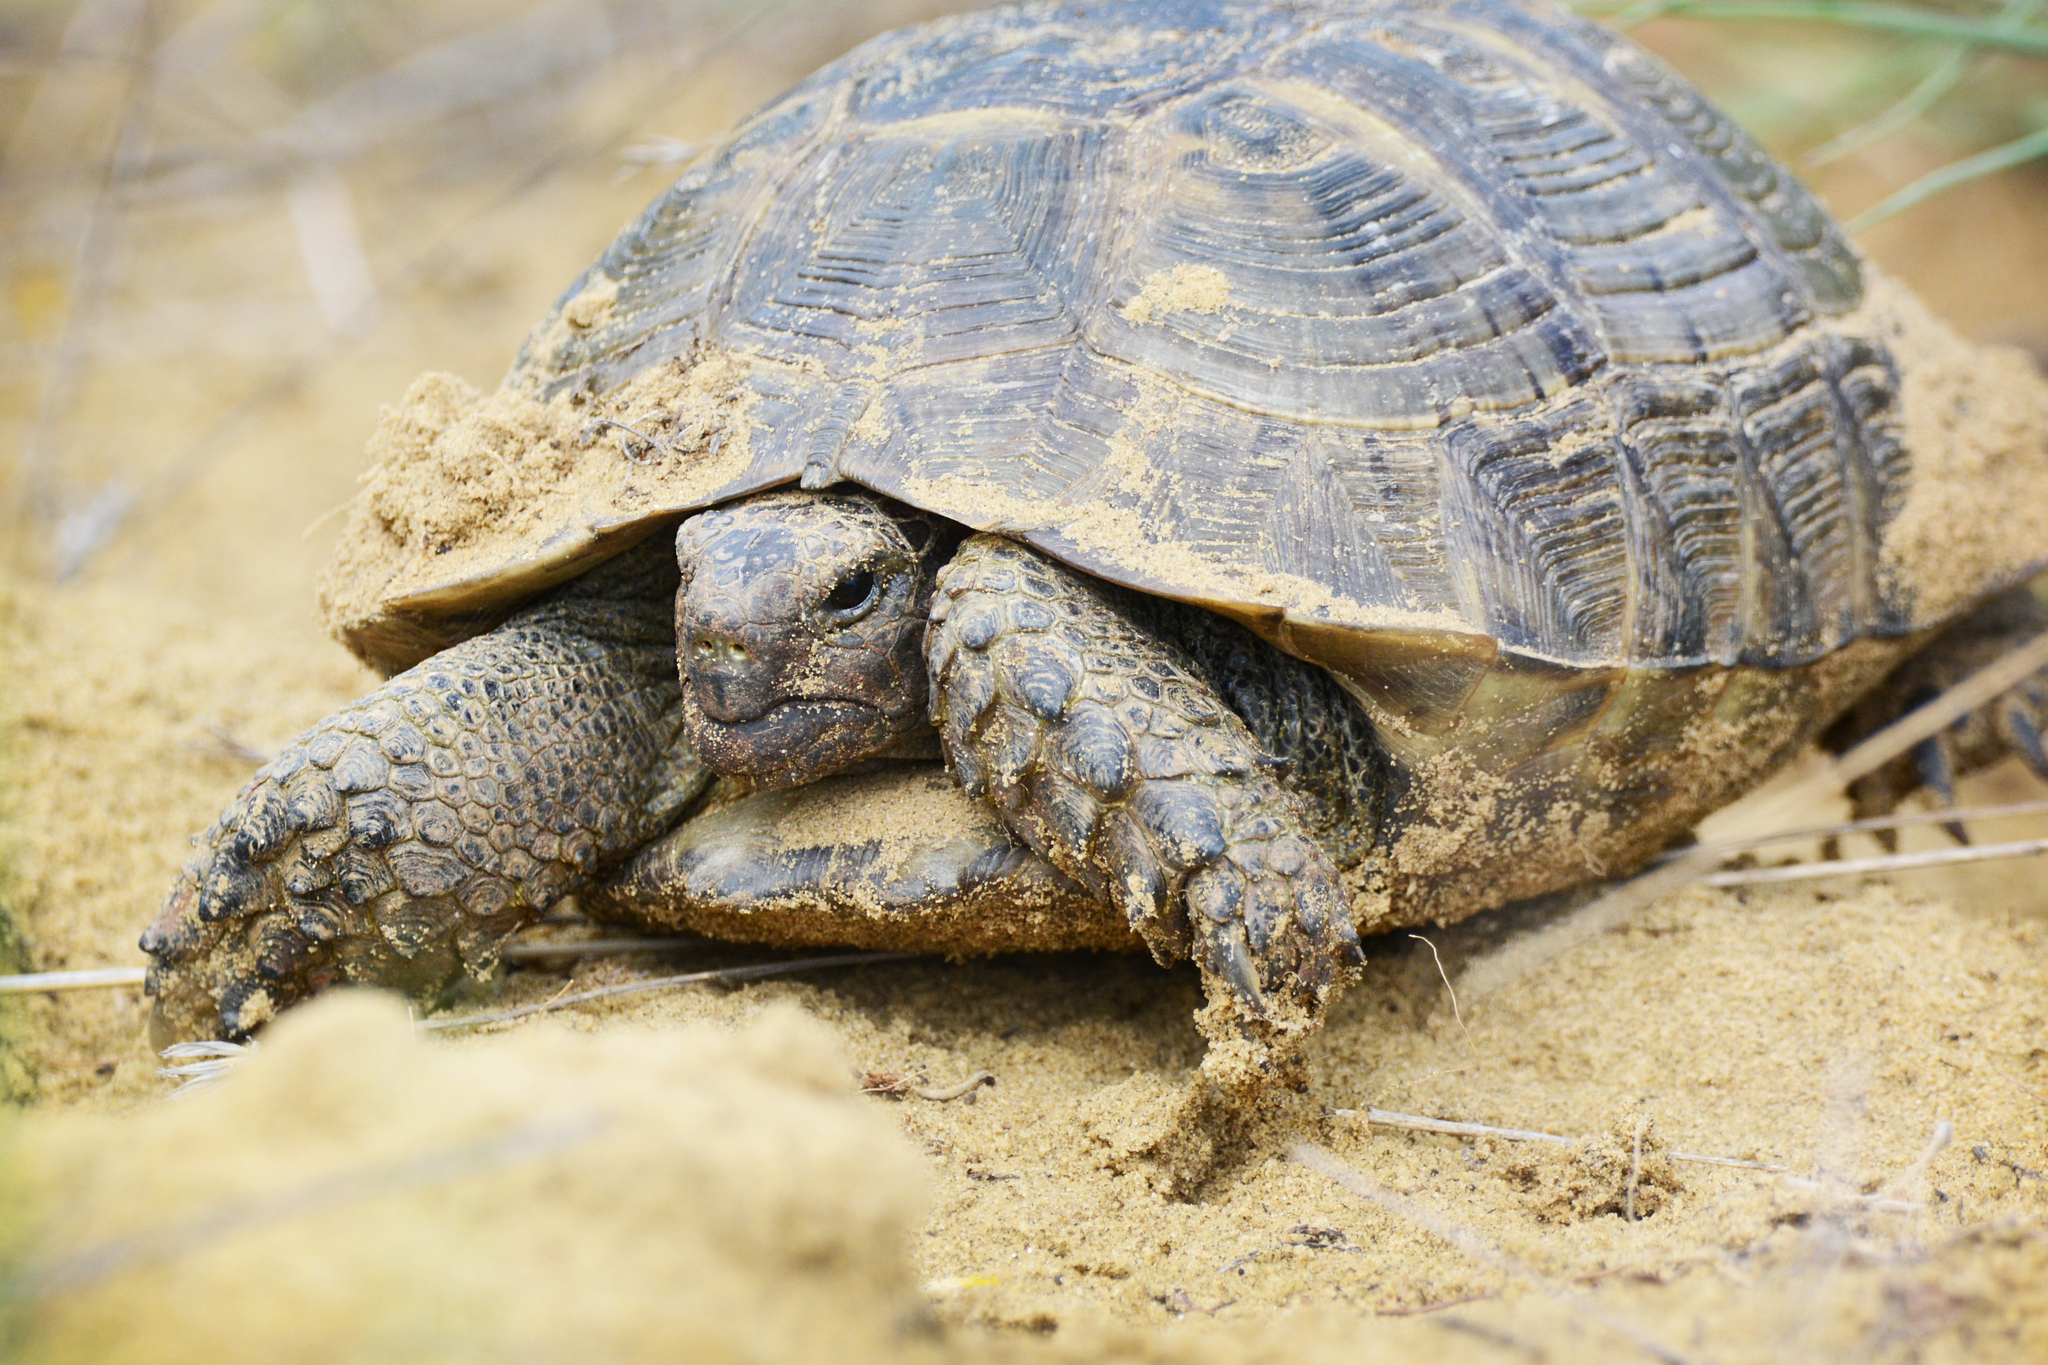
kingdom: Animalia
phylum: Chordata
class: Testudines
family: Testudinidae
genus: Testudo
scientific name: Testudo graeca
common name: Common tortoise
